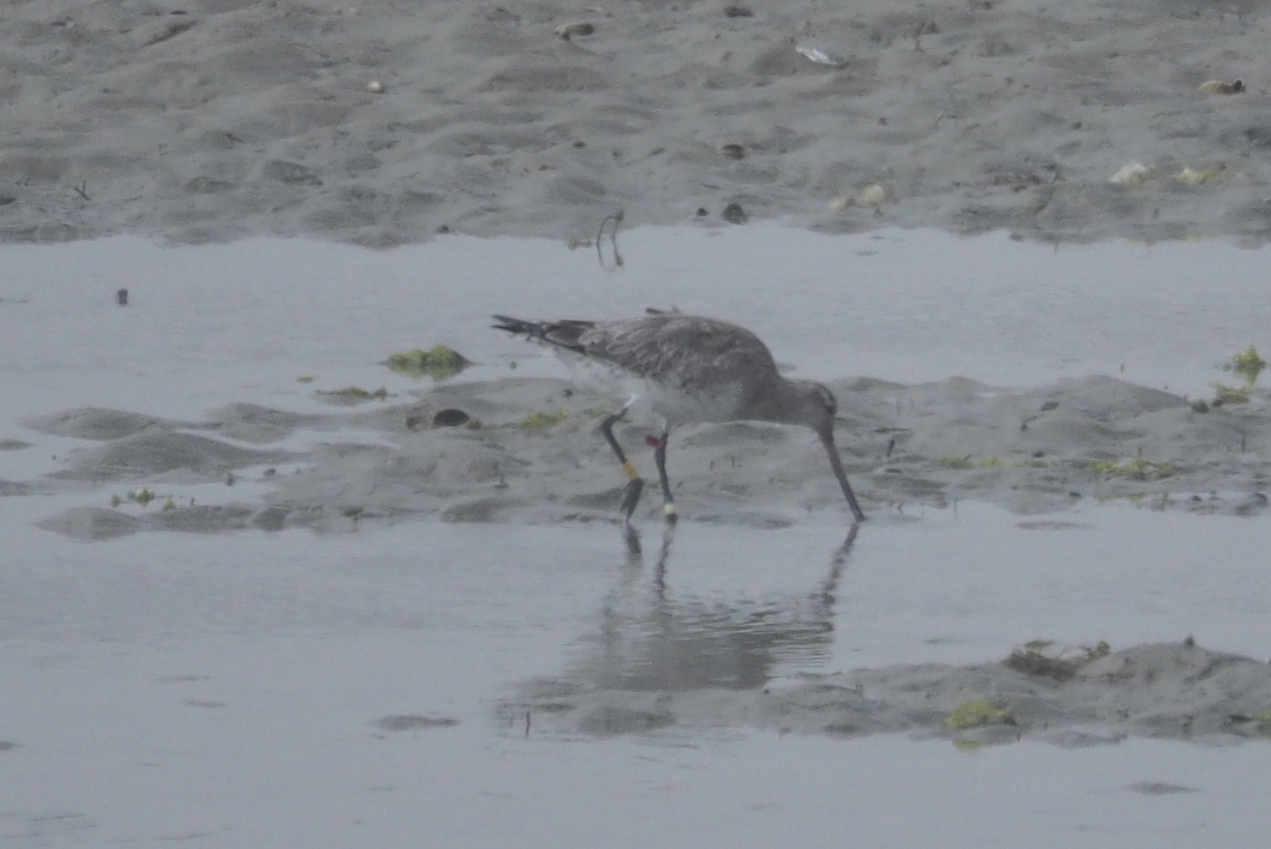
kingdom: Animalia
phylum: Chordata
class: Aves
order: Charadriiformes
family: Scolopacidae
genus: Limosa
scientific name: Limosa lapponica
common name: Bar-tailed godwit
